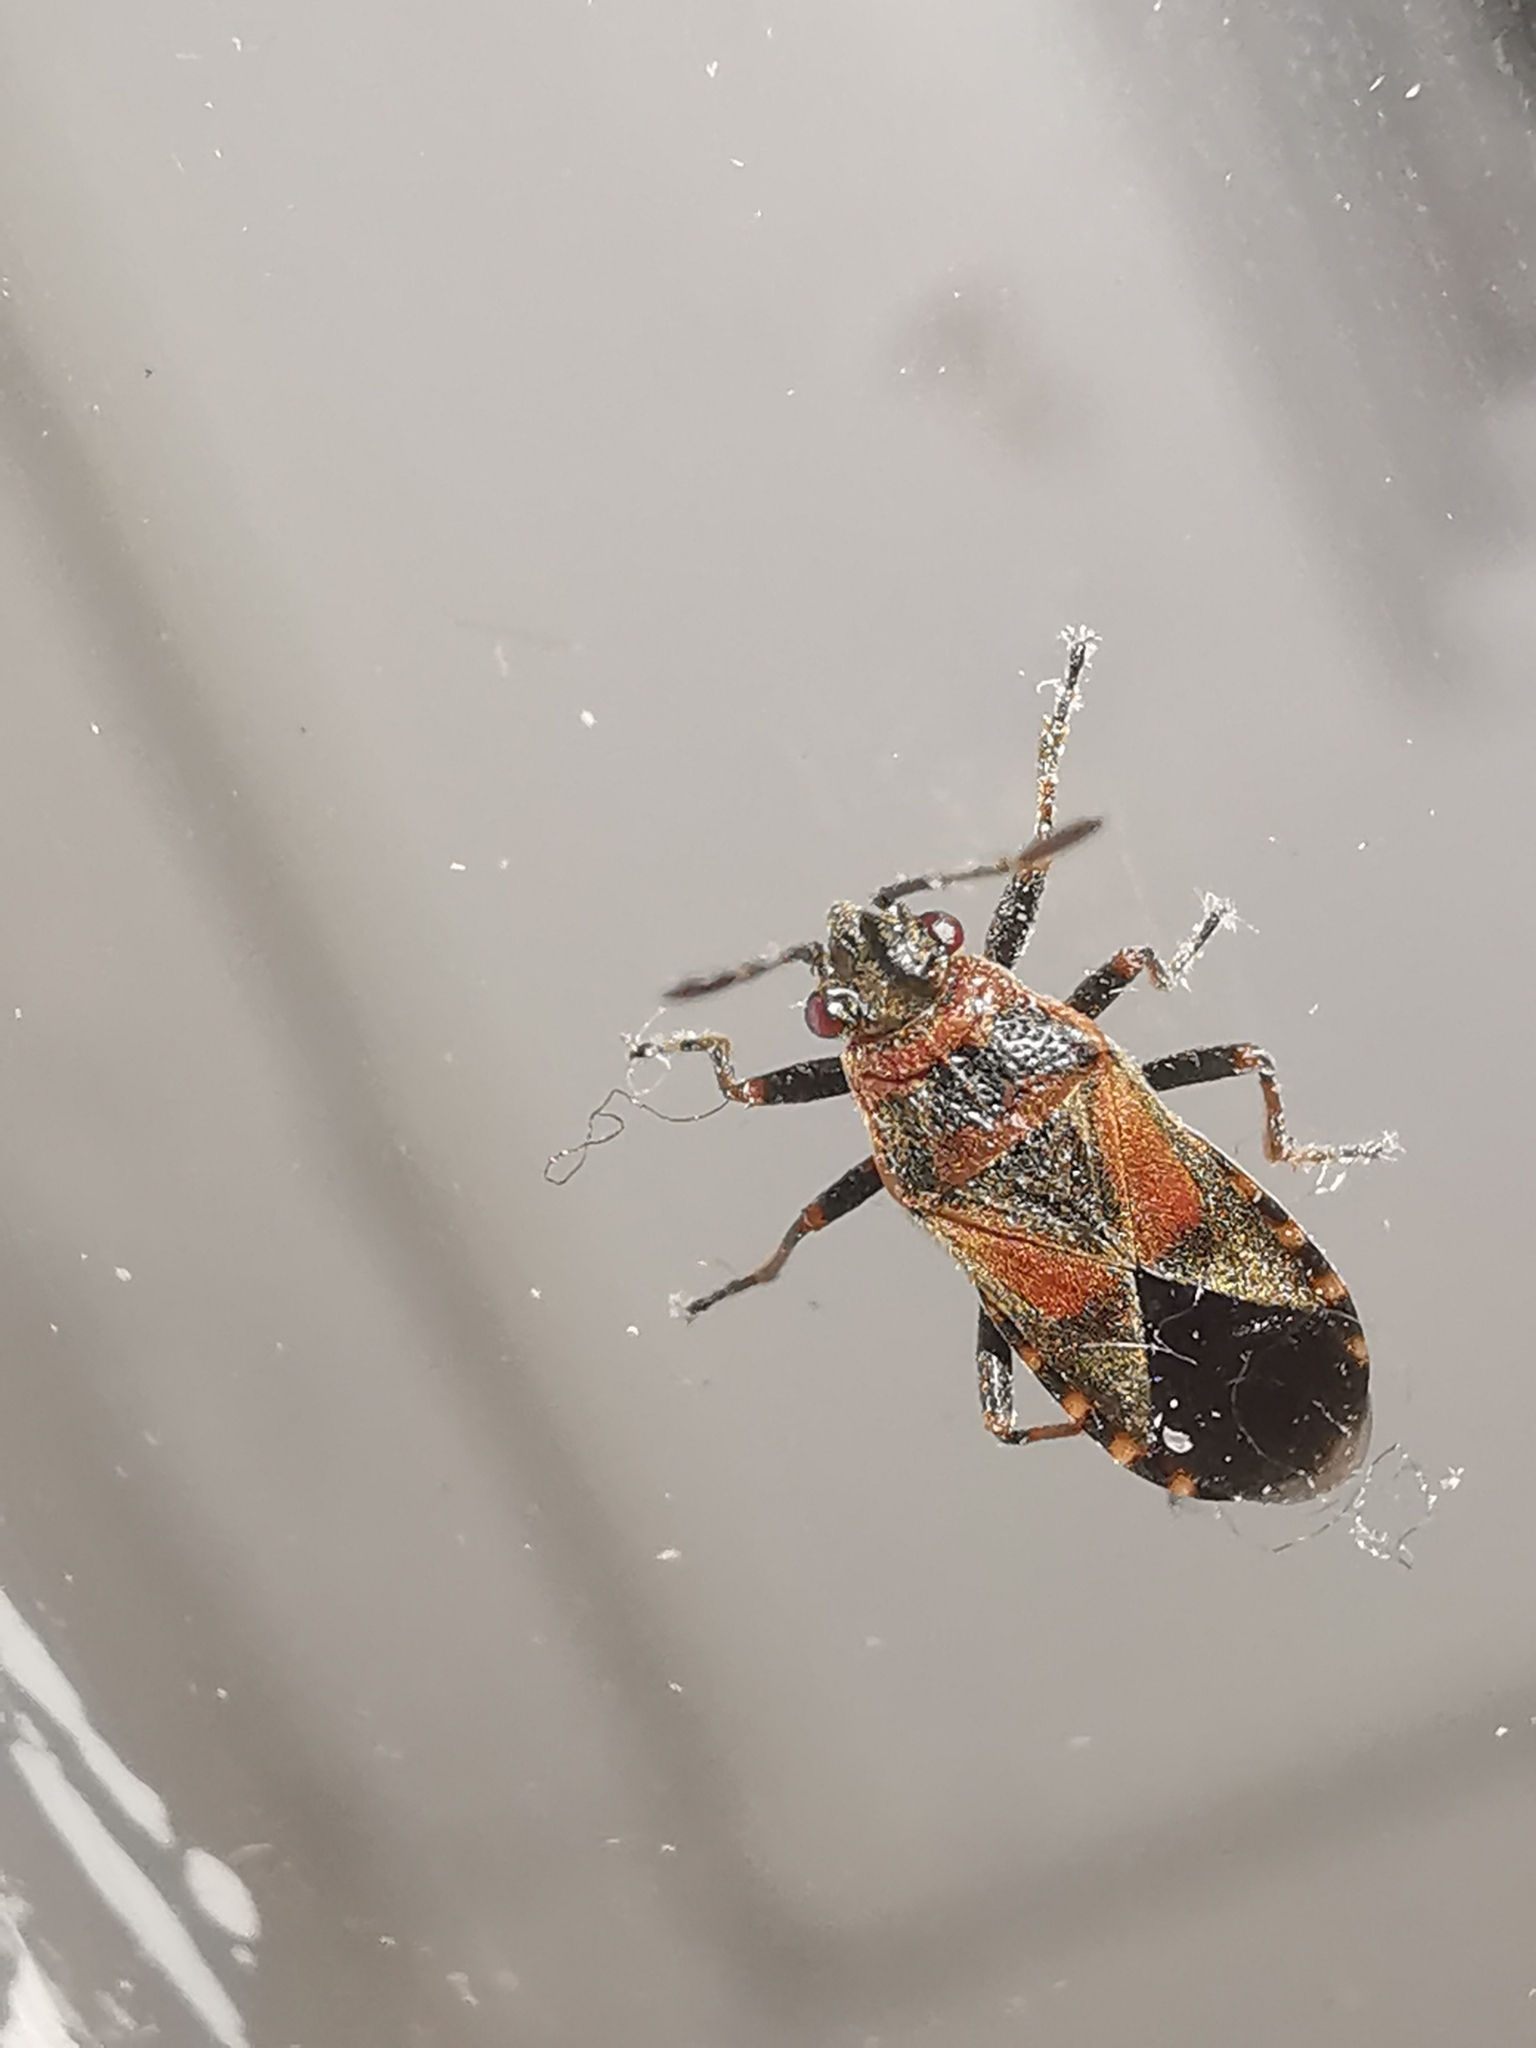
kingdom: Animalia
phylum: Arthropoda
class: Insecta
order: Hemiptera
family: Lygaeidae
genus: Arocatus
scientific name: Arocatus melanocephalus
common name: Lygaeid bug
